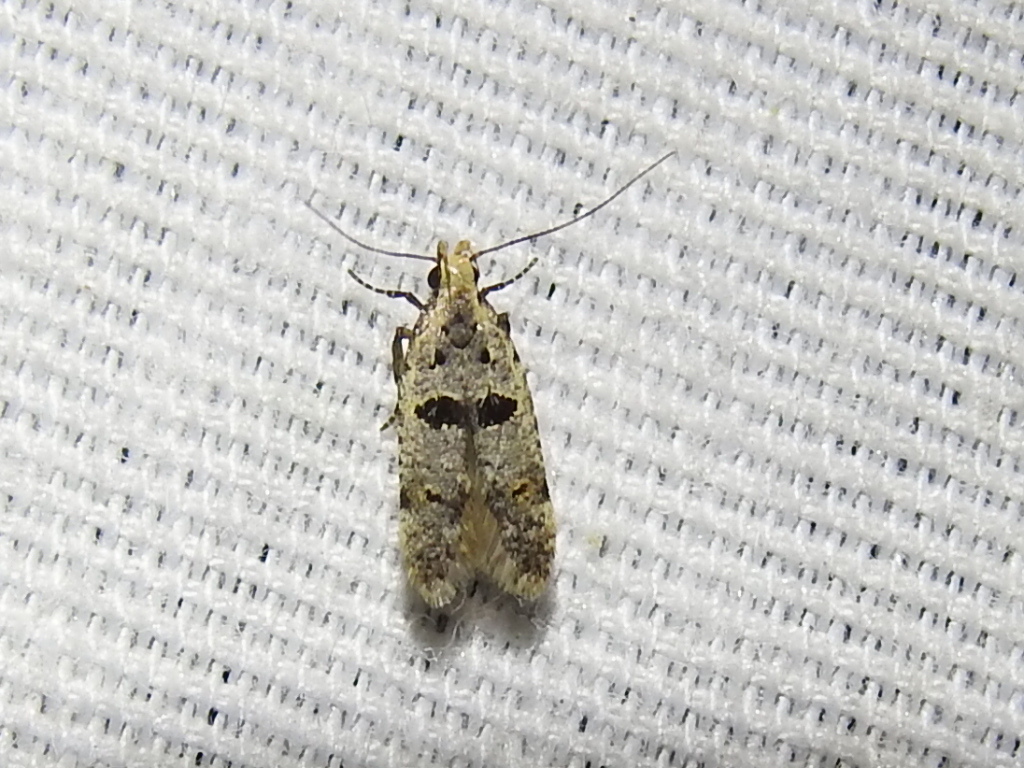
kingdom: Animalia
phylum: Arthropoda
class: Insecta
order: Lepidoptera
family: Gelechiidae
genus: Deltophora
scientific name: Deltophora glandiferella
